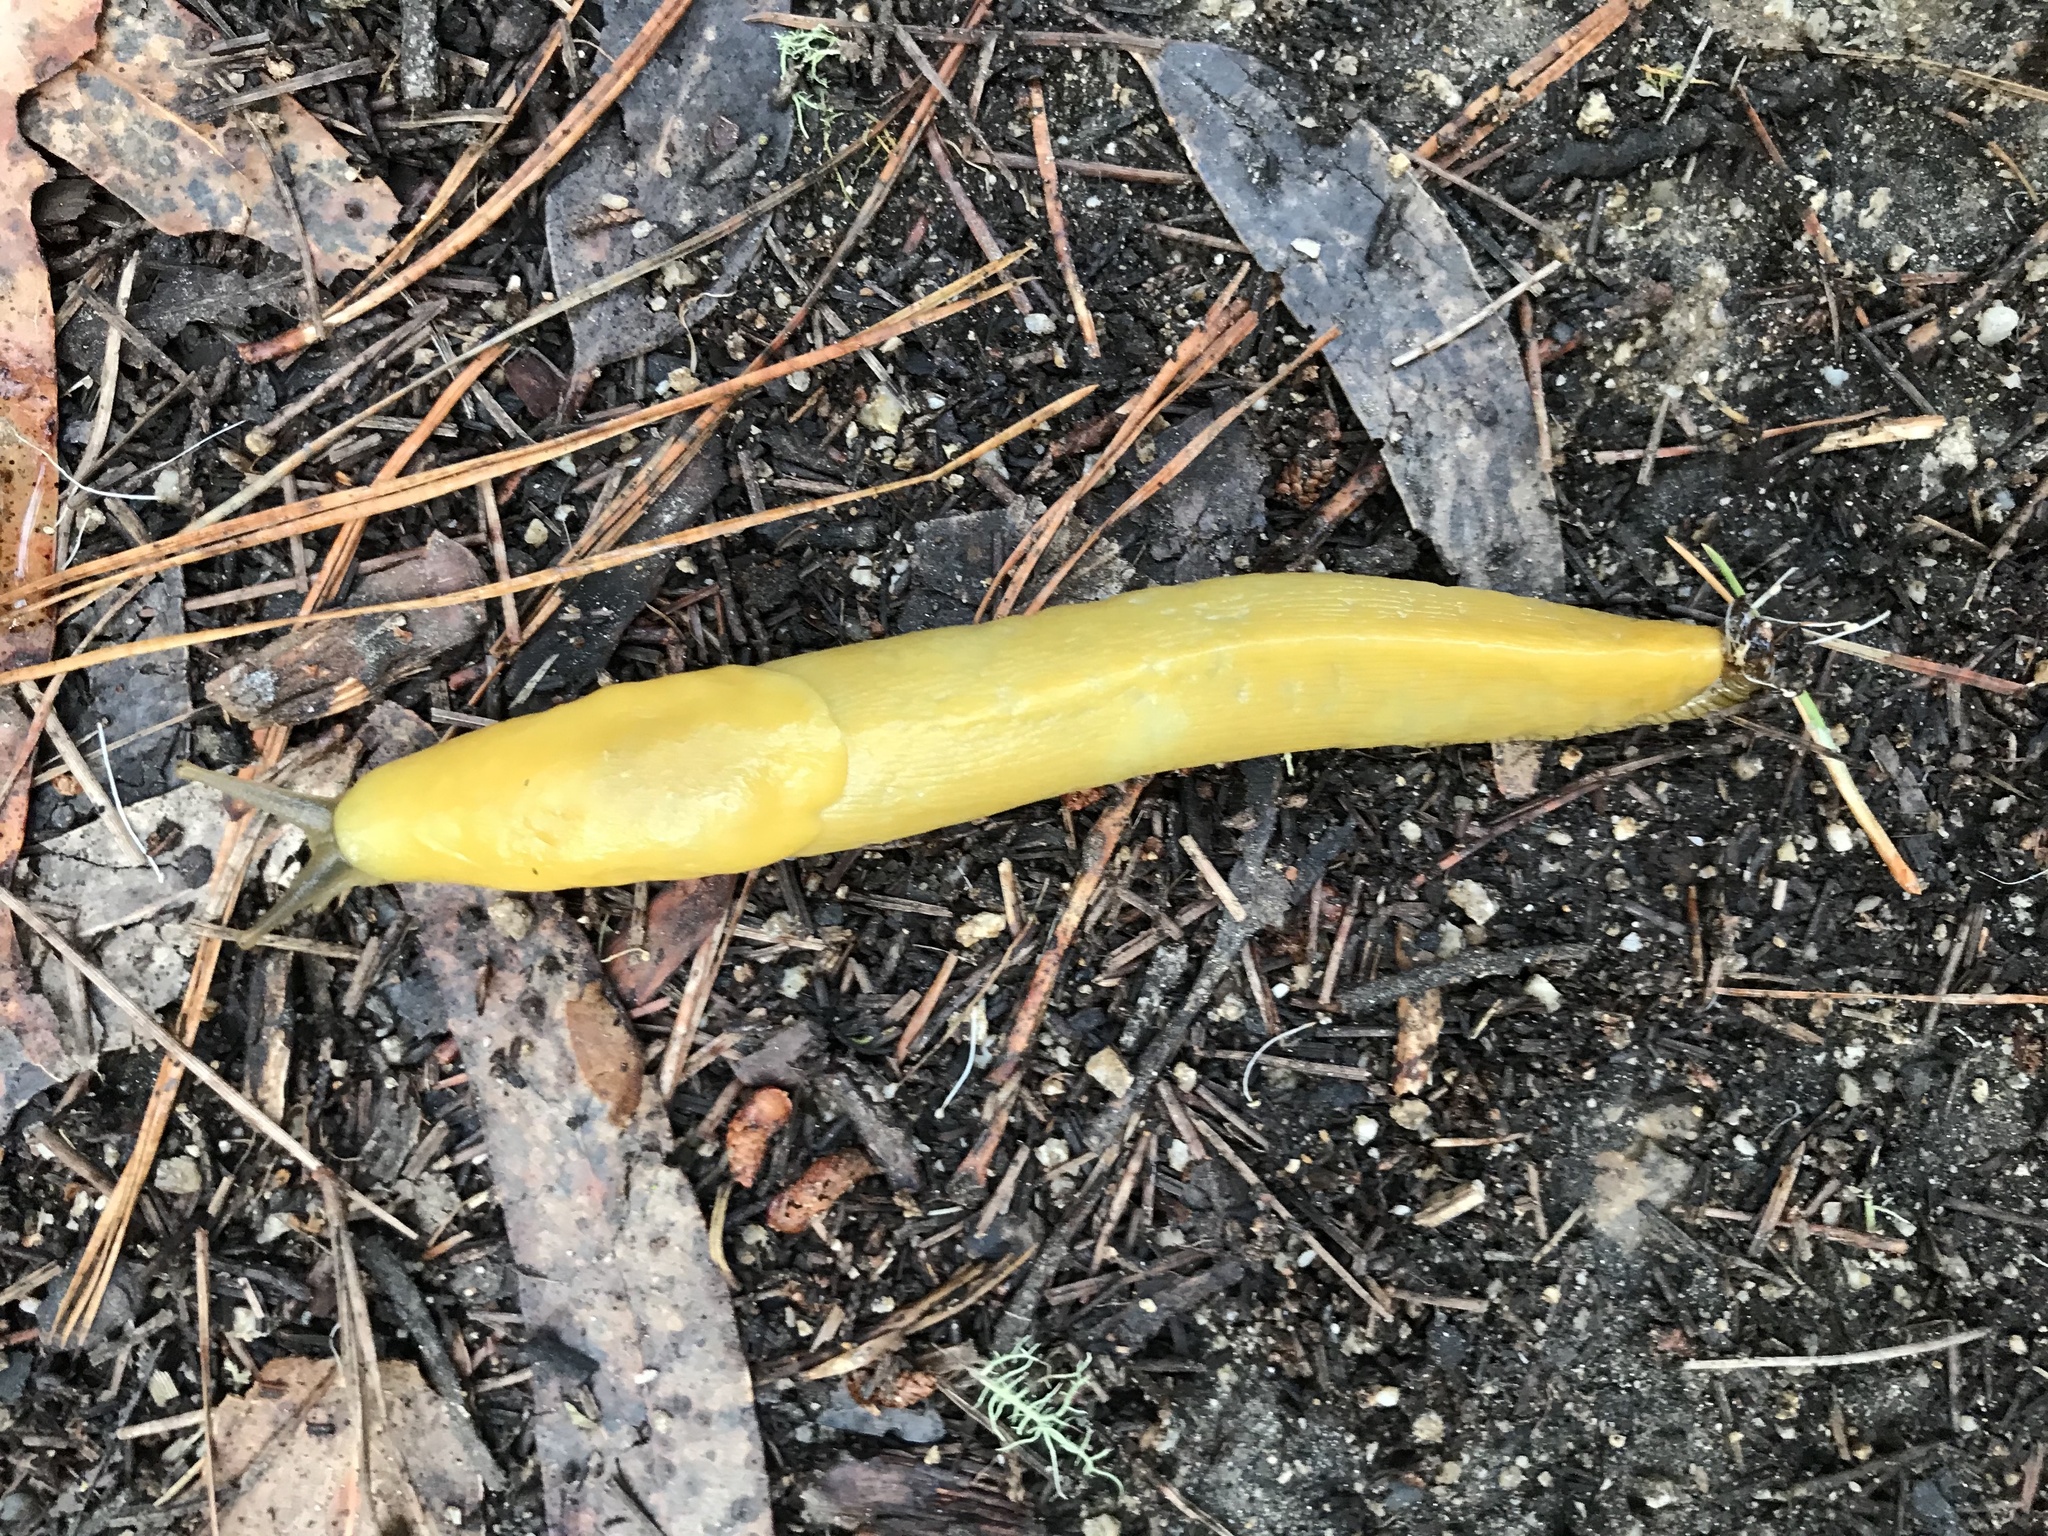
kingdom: Animalia
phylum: Mollusca
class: Gastropoda
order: Stylommatophora
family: Ariolimacidae
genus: Ariolimax
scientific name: Ariolimax californicus
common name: California banana slug
